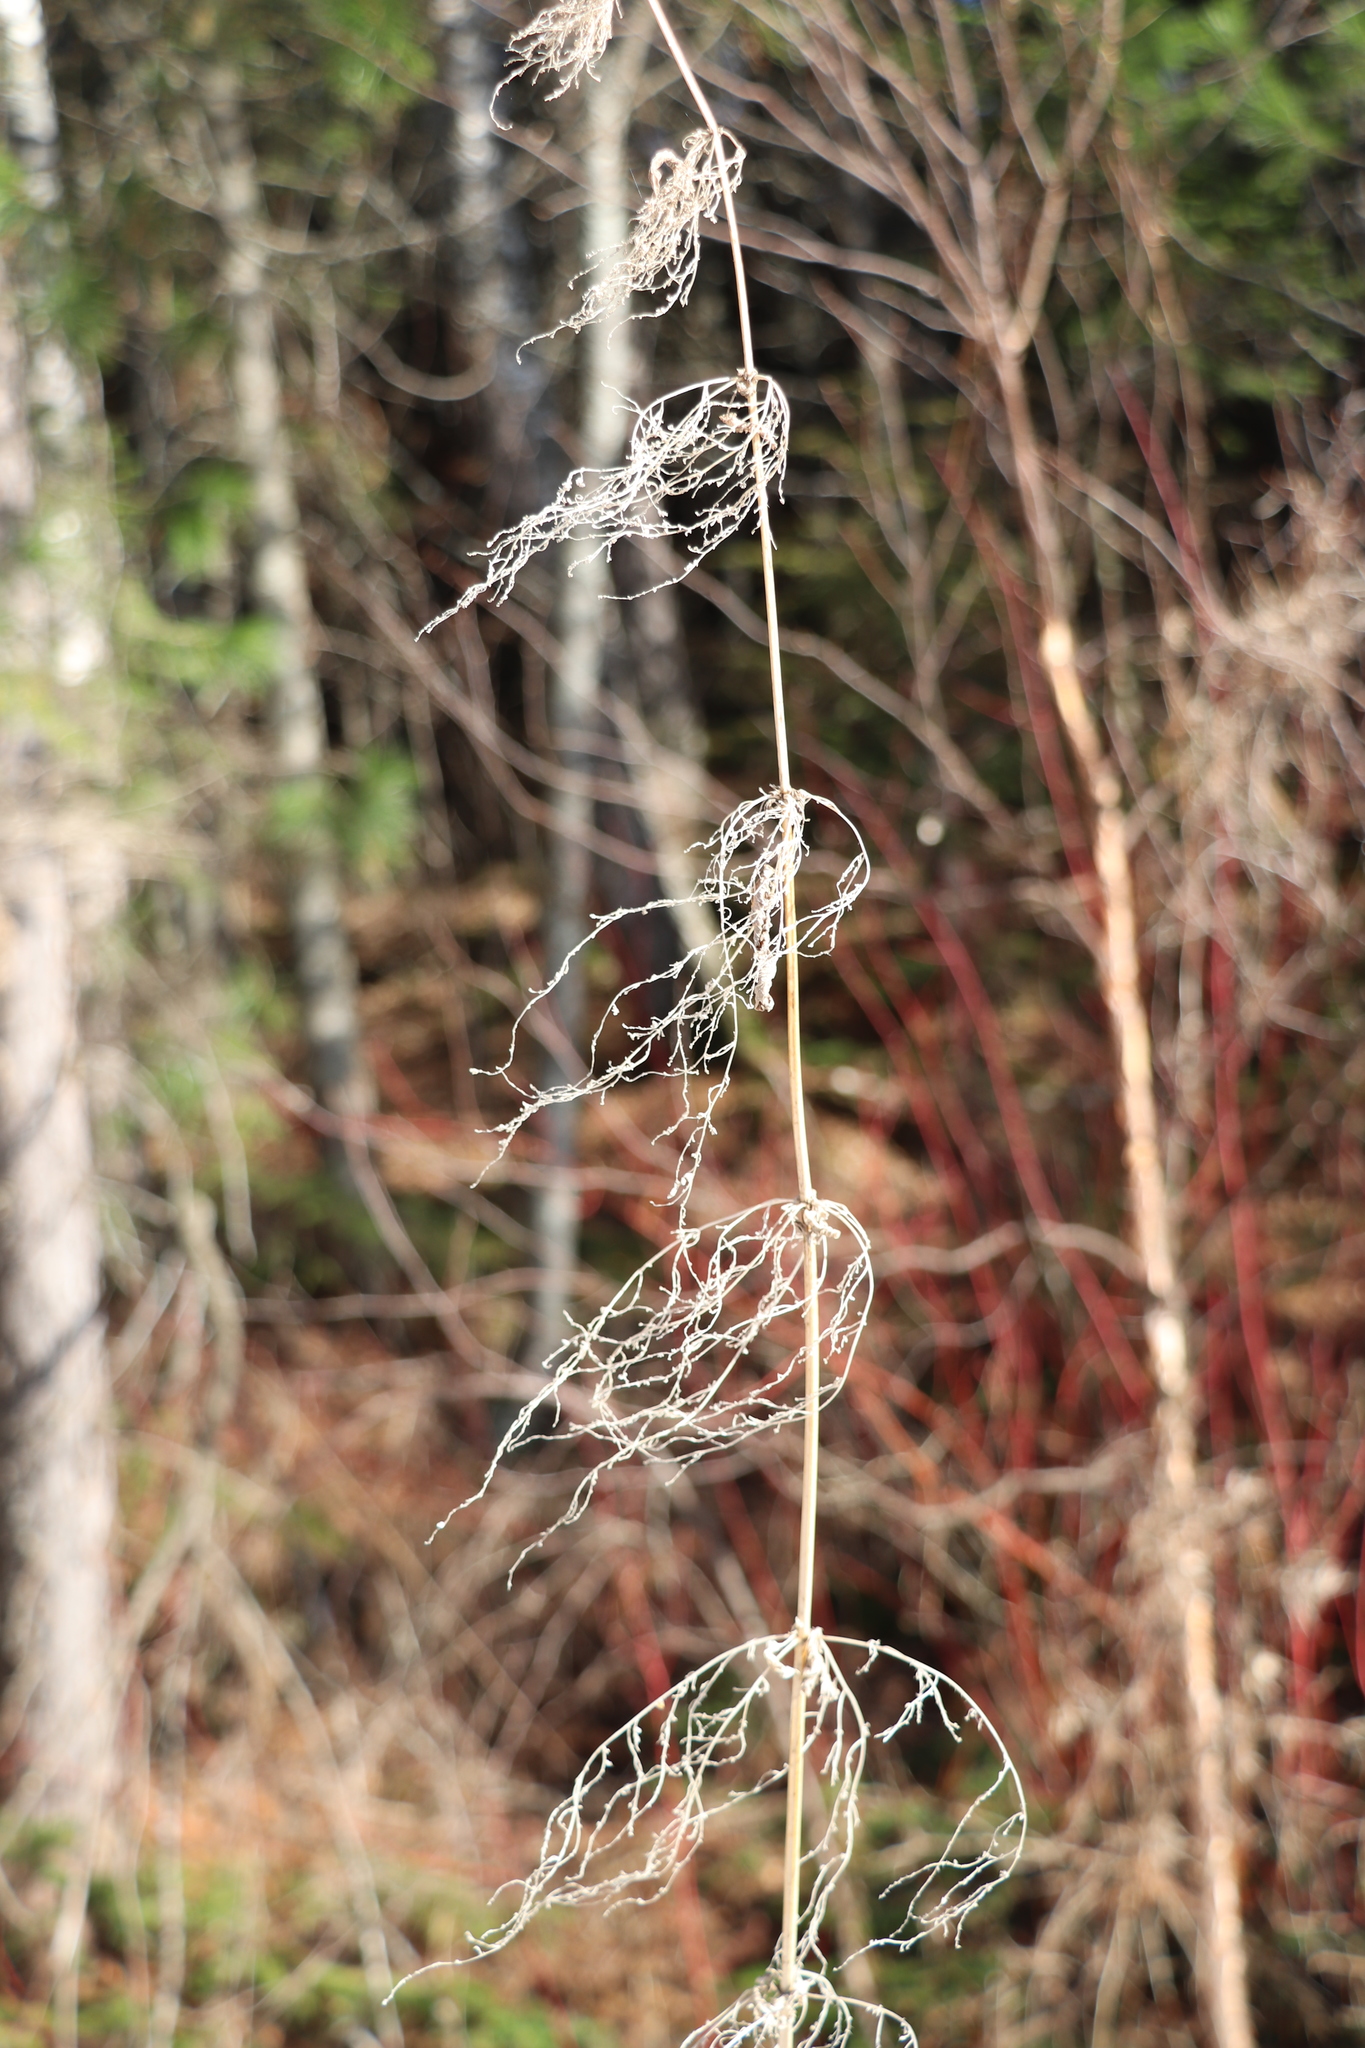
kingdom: Plantae
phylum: Tracheophyta
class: Magnoliopsida
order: Rosales
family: Urticaceae
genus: Urtica
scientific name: Urtica galeopsifolia
